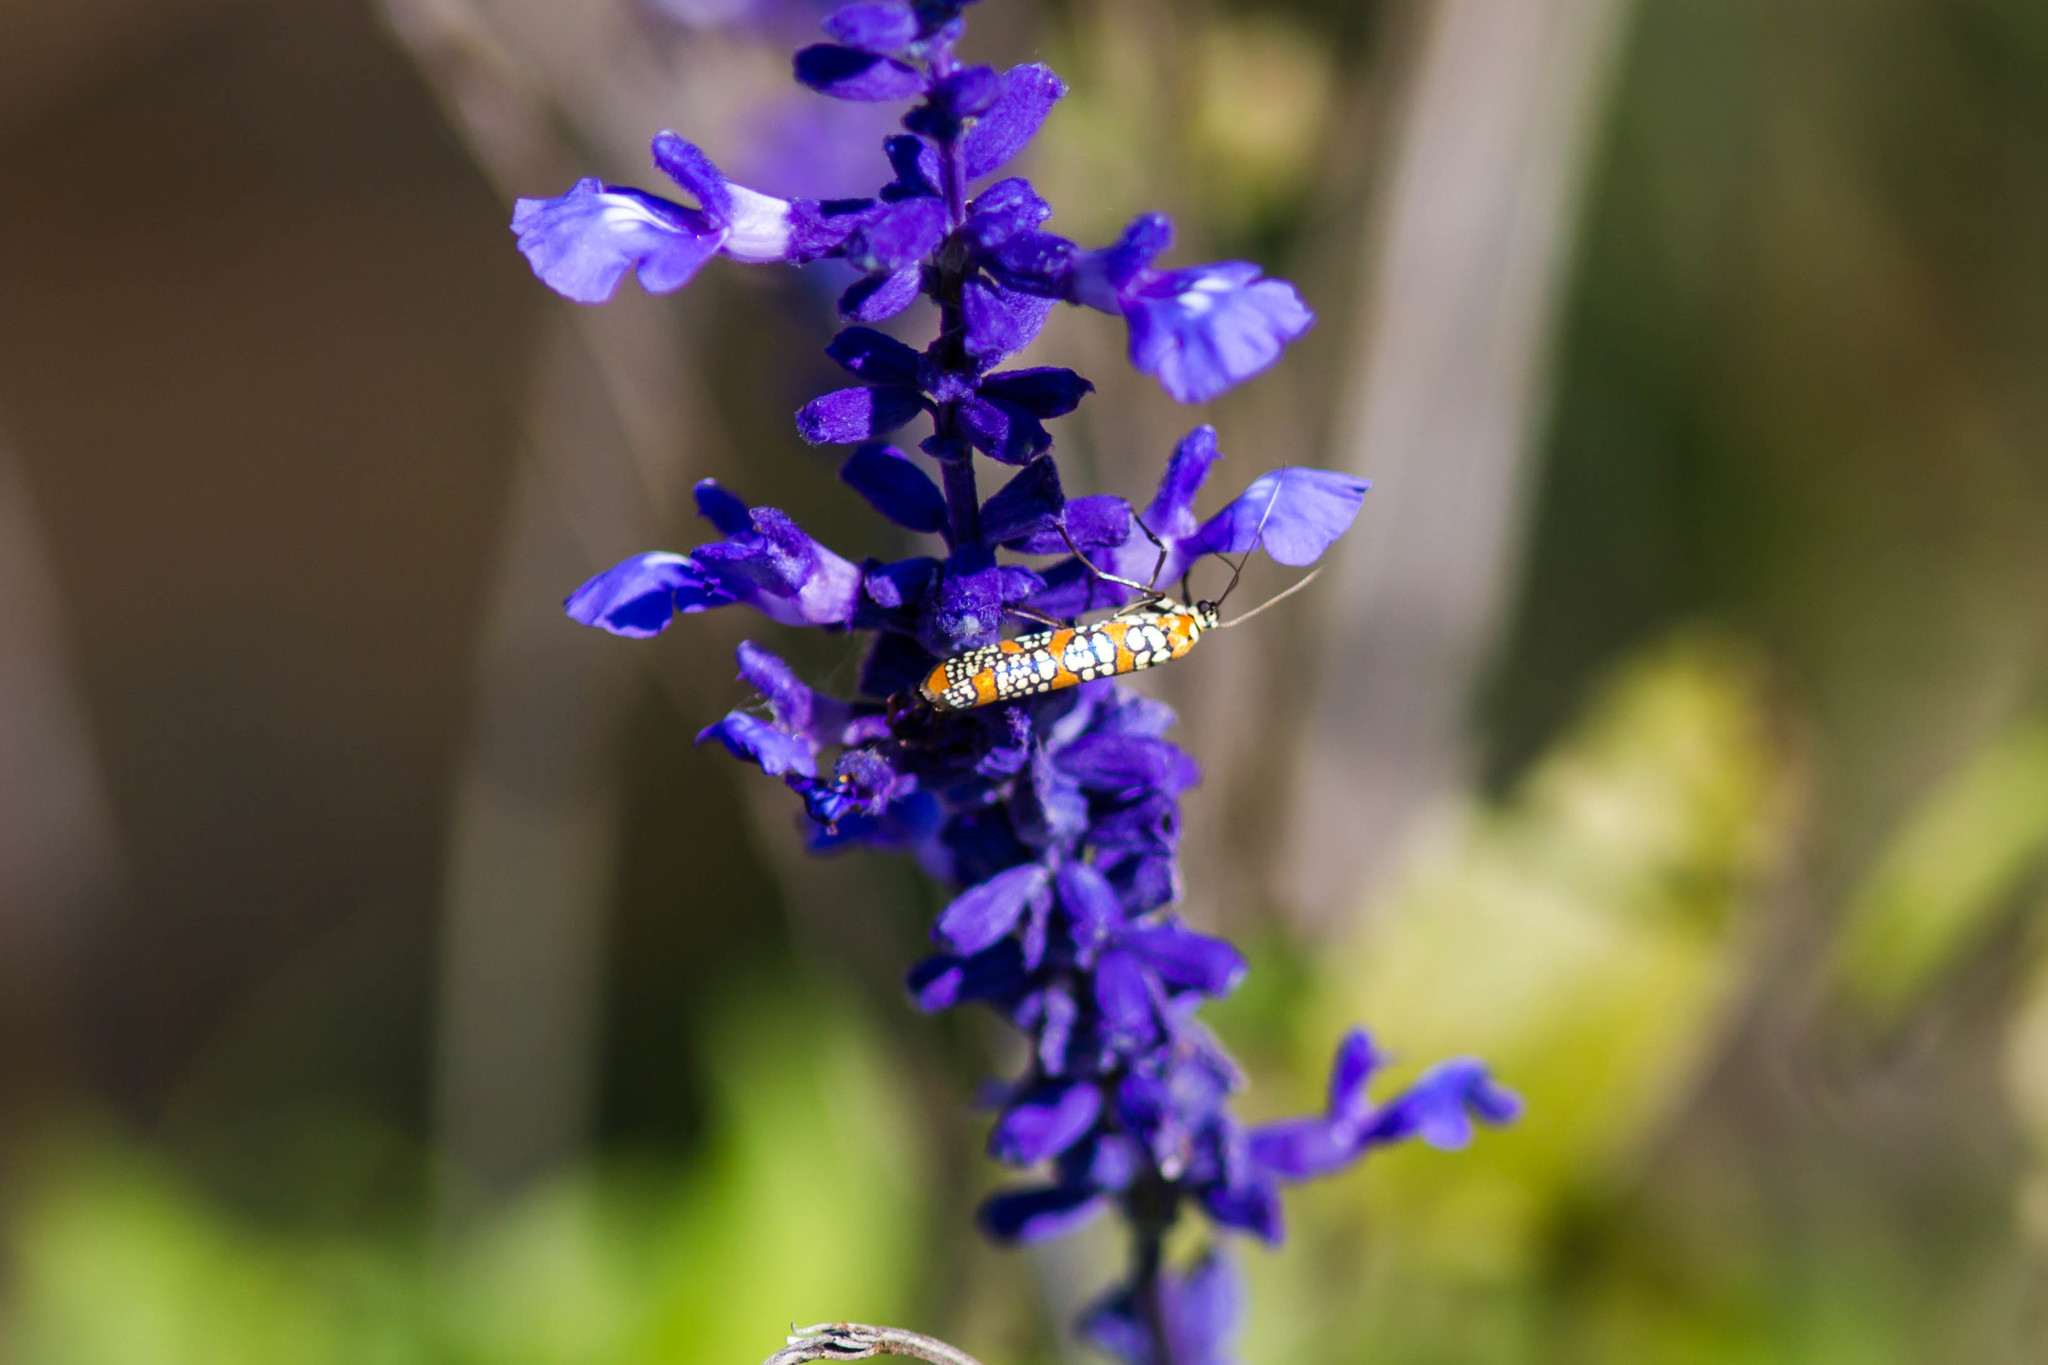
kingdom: Animalia
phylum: Arthropoda
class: Insecta
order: Lepidoptera
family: Attevidae
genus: Atteva
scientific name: Atteva punctella
